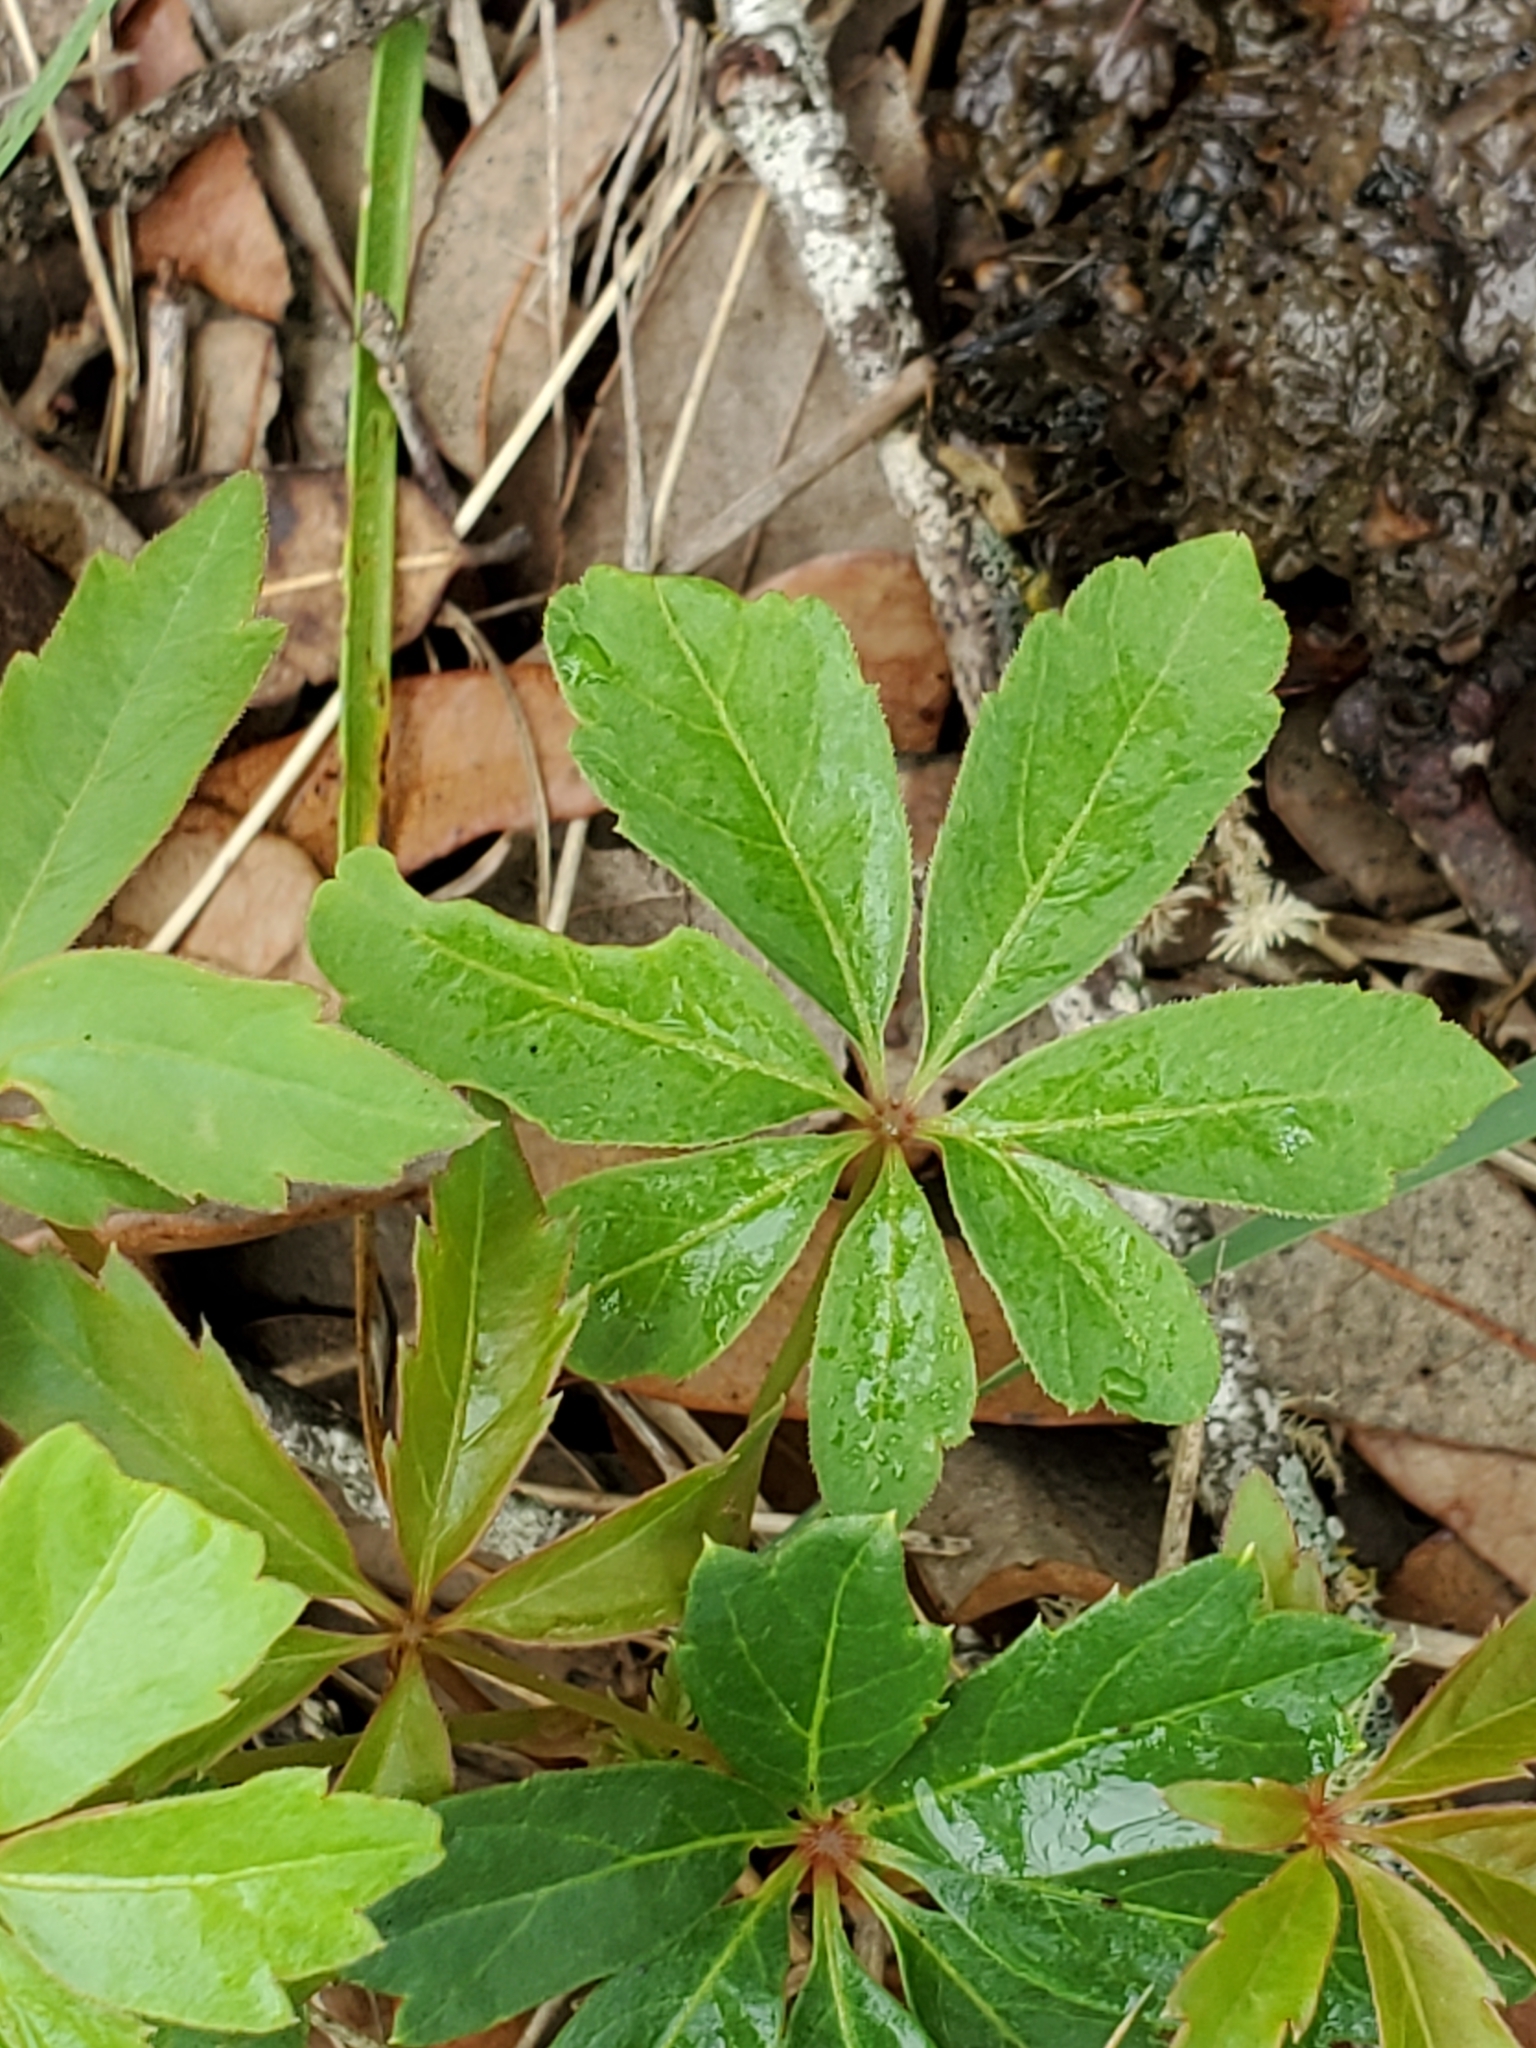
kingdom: Plantae
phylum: Tracheophyta
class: Magnoliopsida
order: Vitales
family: Vitaceae
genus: Parthenocissus
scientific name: Parthenocissus heptaphylla
